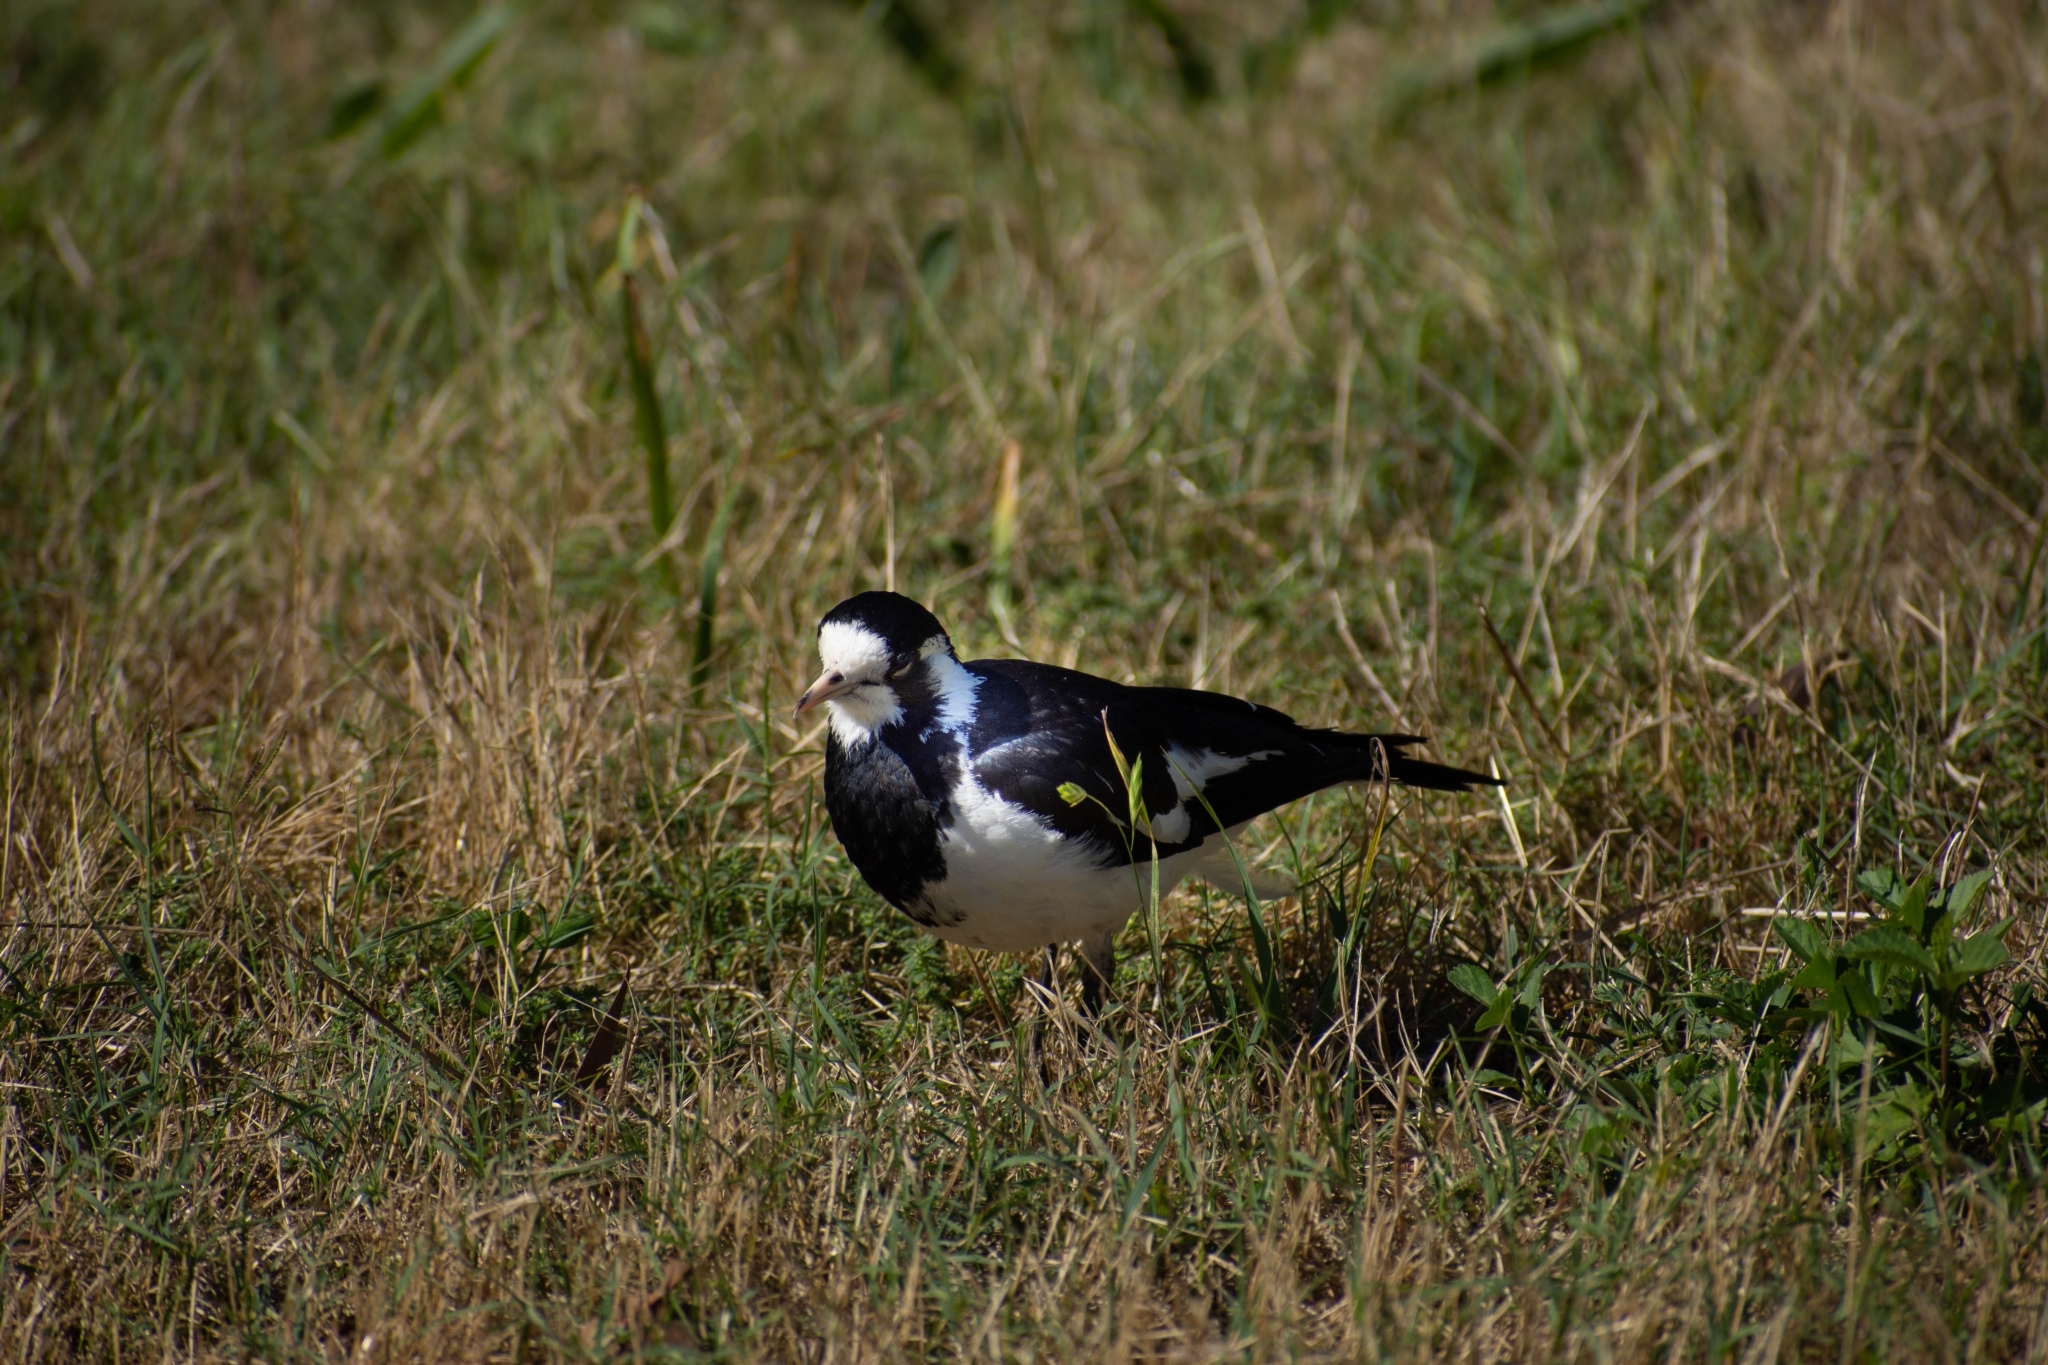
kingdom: Animalia
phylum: Chordata
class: Aves
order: Passeriformes
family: Monarchidae
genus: Grallina
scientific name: Grallina cyanoleuca
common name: Magpie-lark
